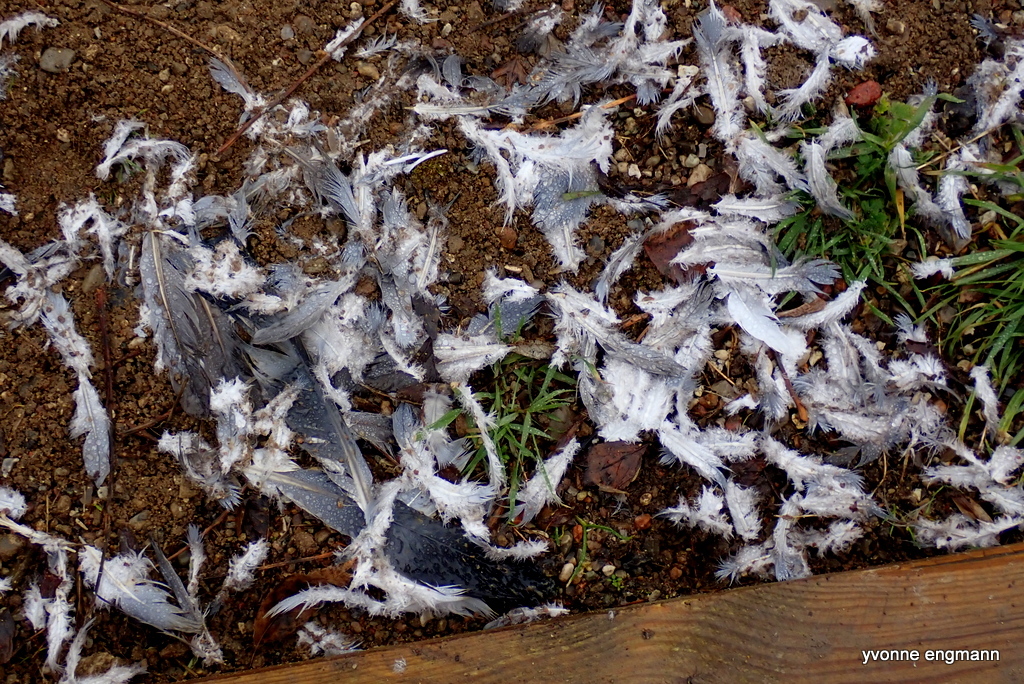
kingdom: Animalia
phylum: Chordata
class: Aves
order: Columbiformes
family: Columbidae
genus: Columba
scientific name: Columba palumbus
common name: Common wood pigeon
